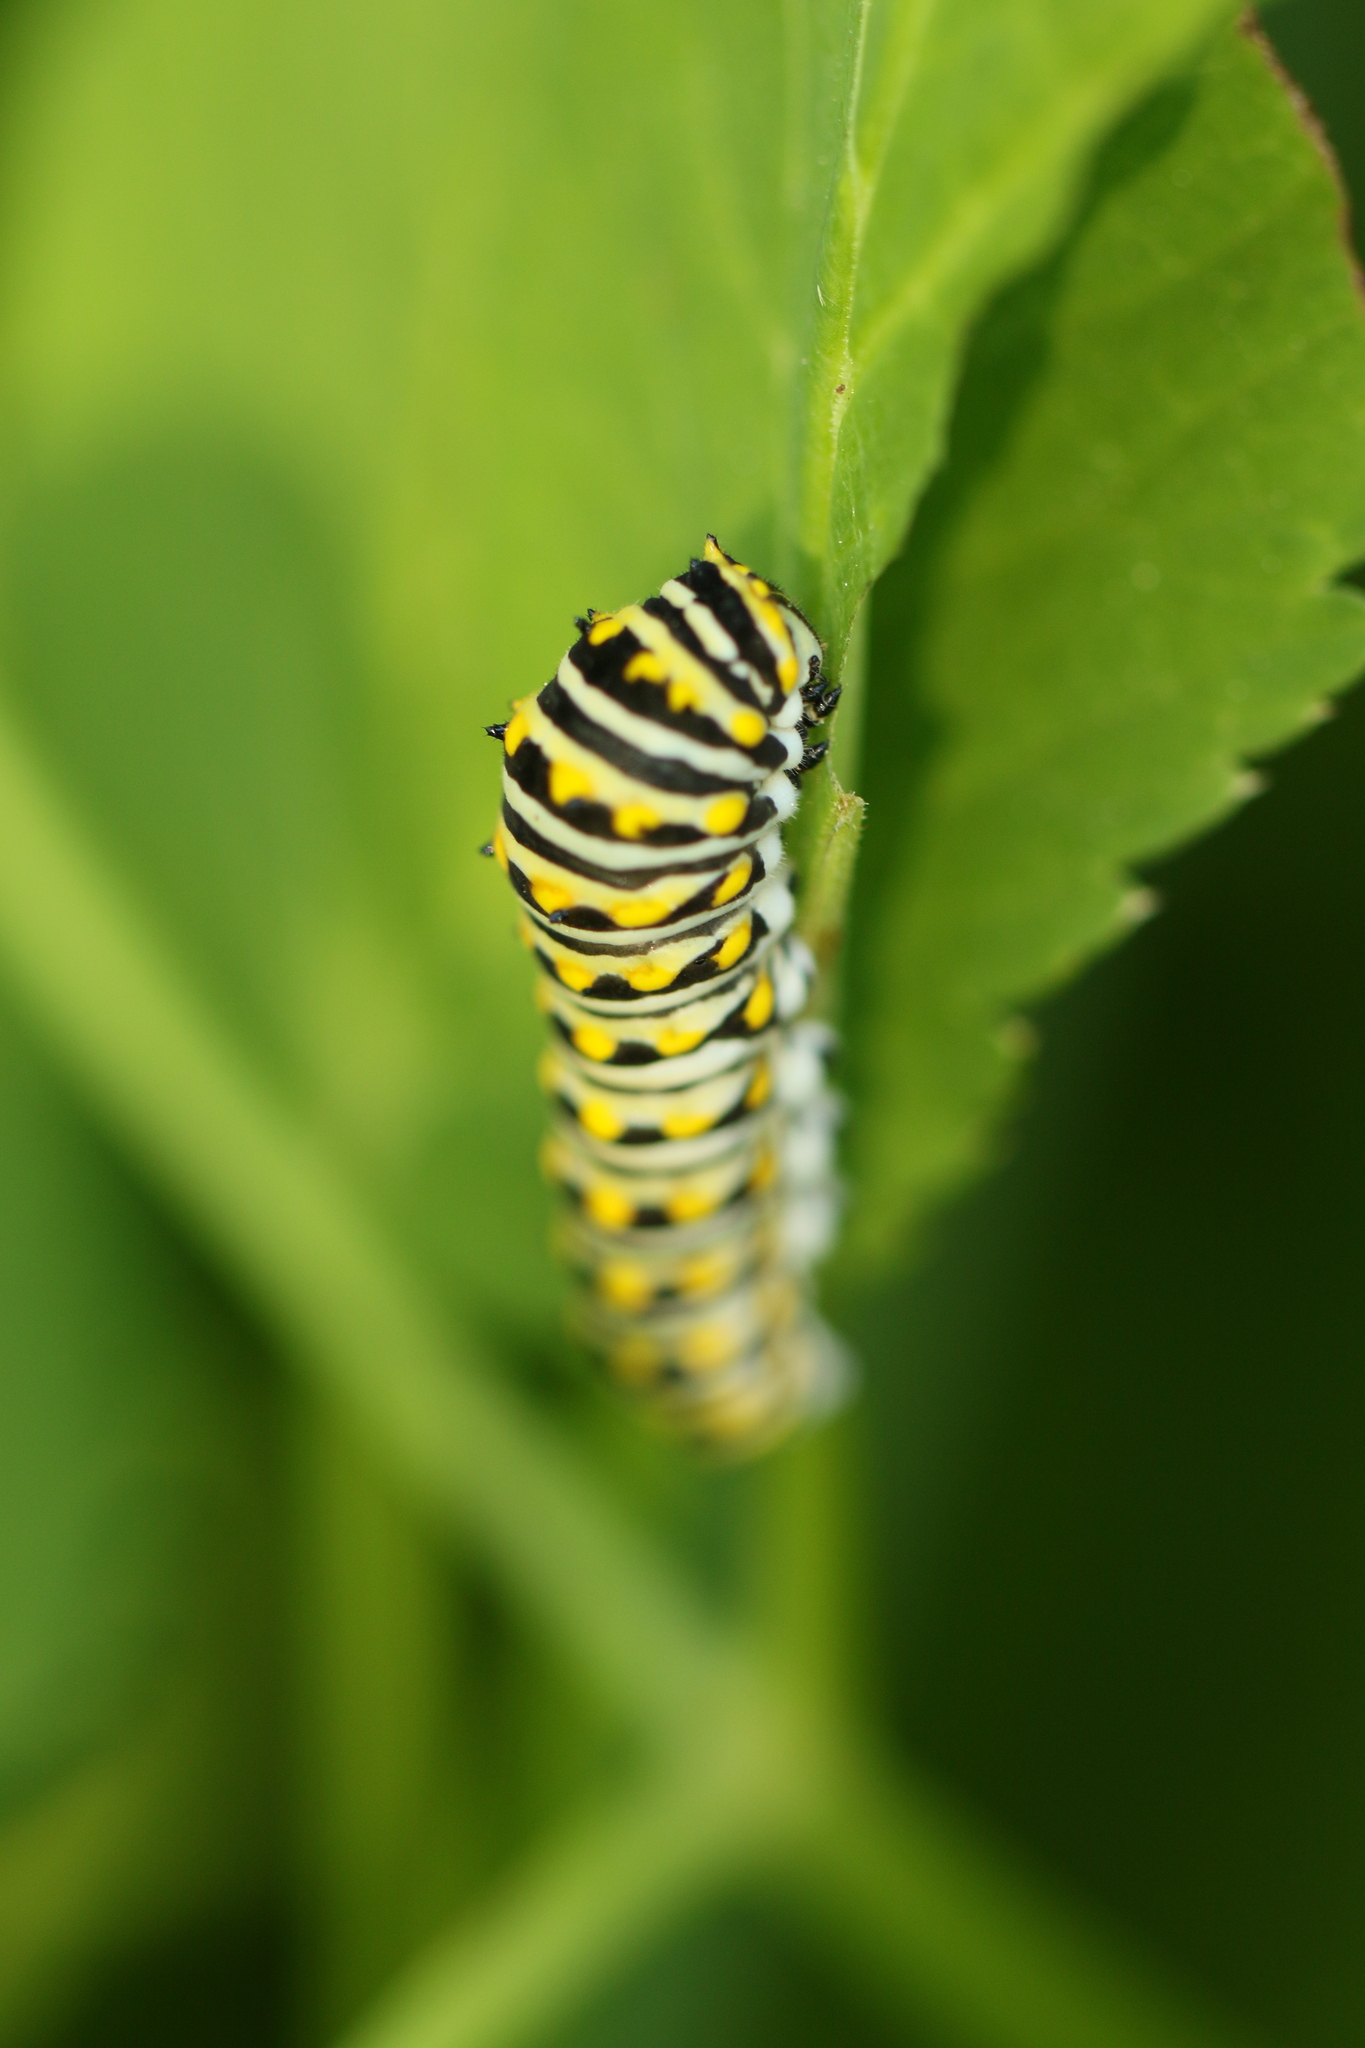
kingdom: Animalia
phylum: Arthropoda
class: Insecta
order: Lepidoptera
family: Papilionidae
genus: Papilio
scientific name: Papilio polyxenes
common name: Black swallowtail
